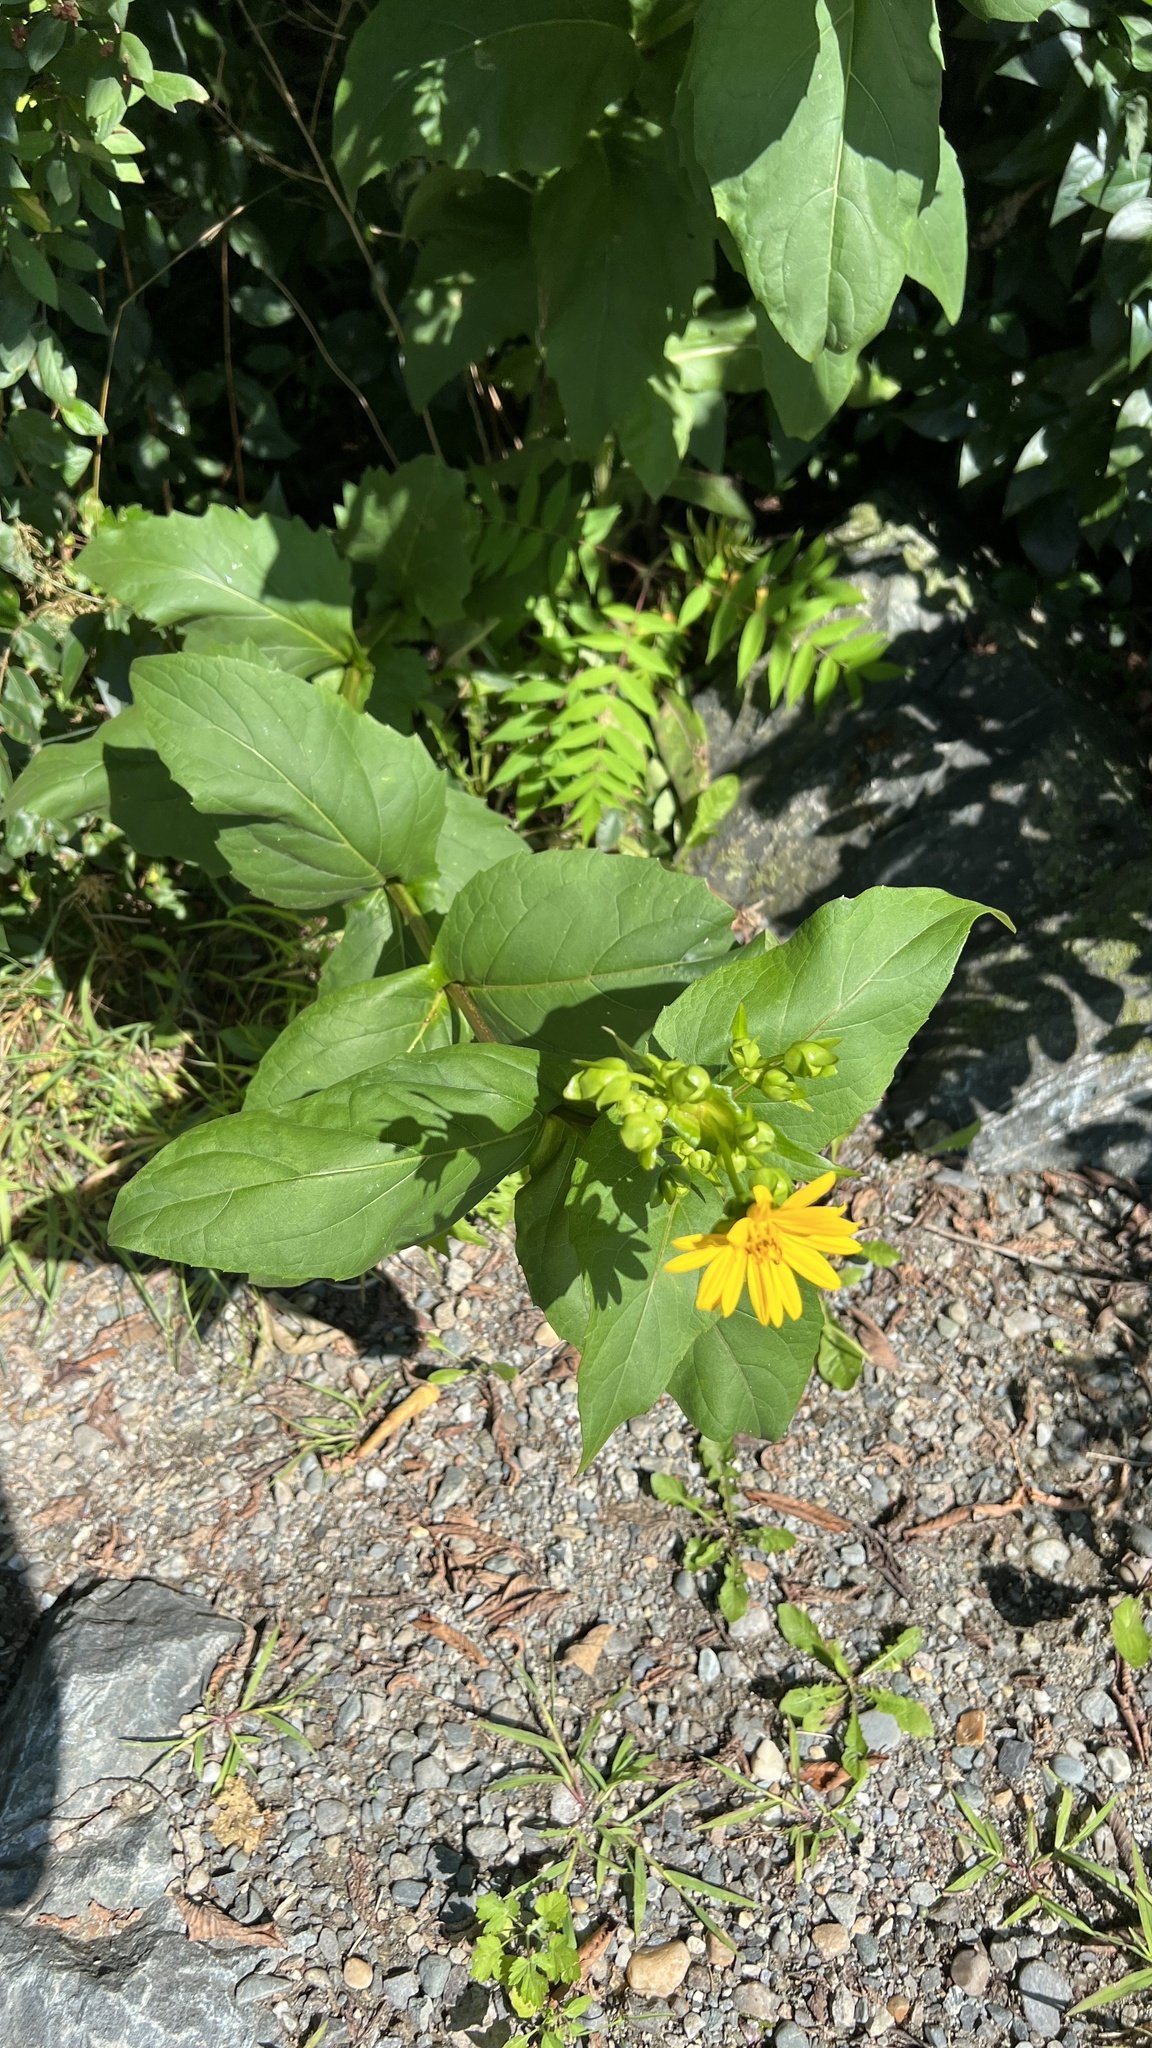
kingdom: Plantae
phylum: Tracheophyta
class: Magnoliopsida
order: Asterales
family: Asteraceae
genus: Silphium
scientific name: Silphium perfoliatum
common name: Cup-plant
